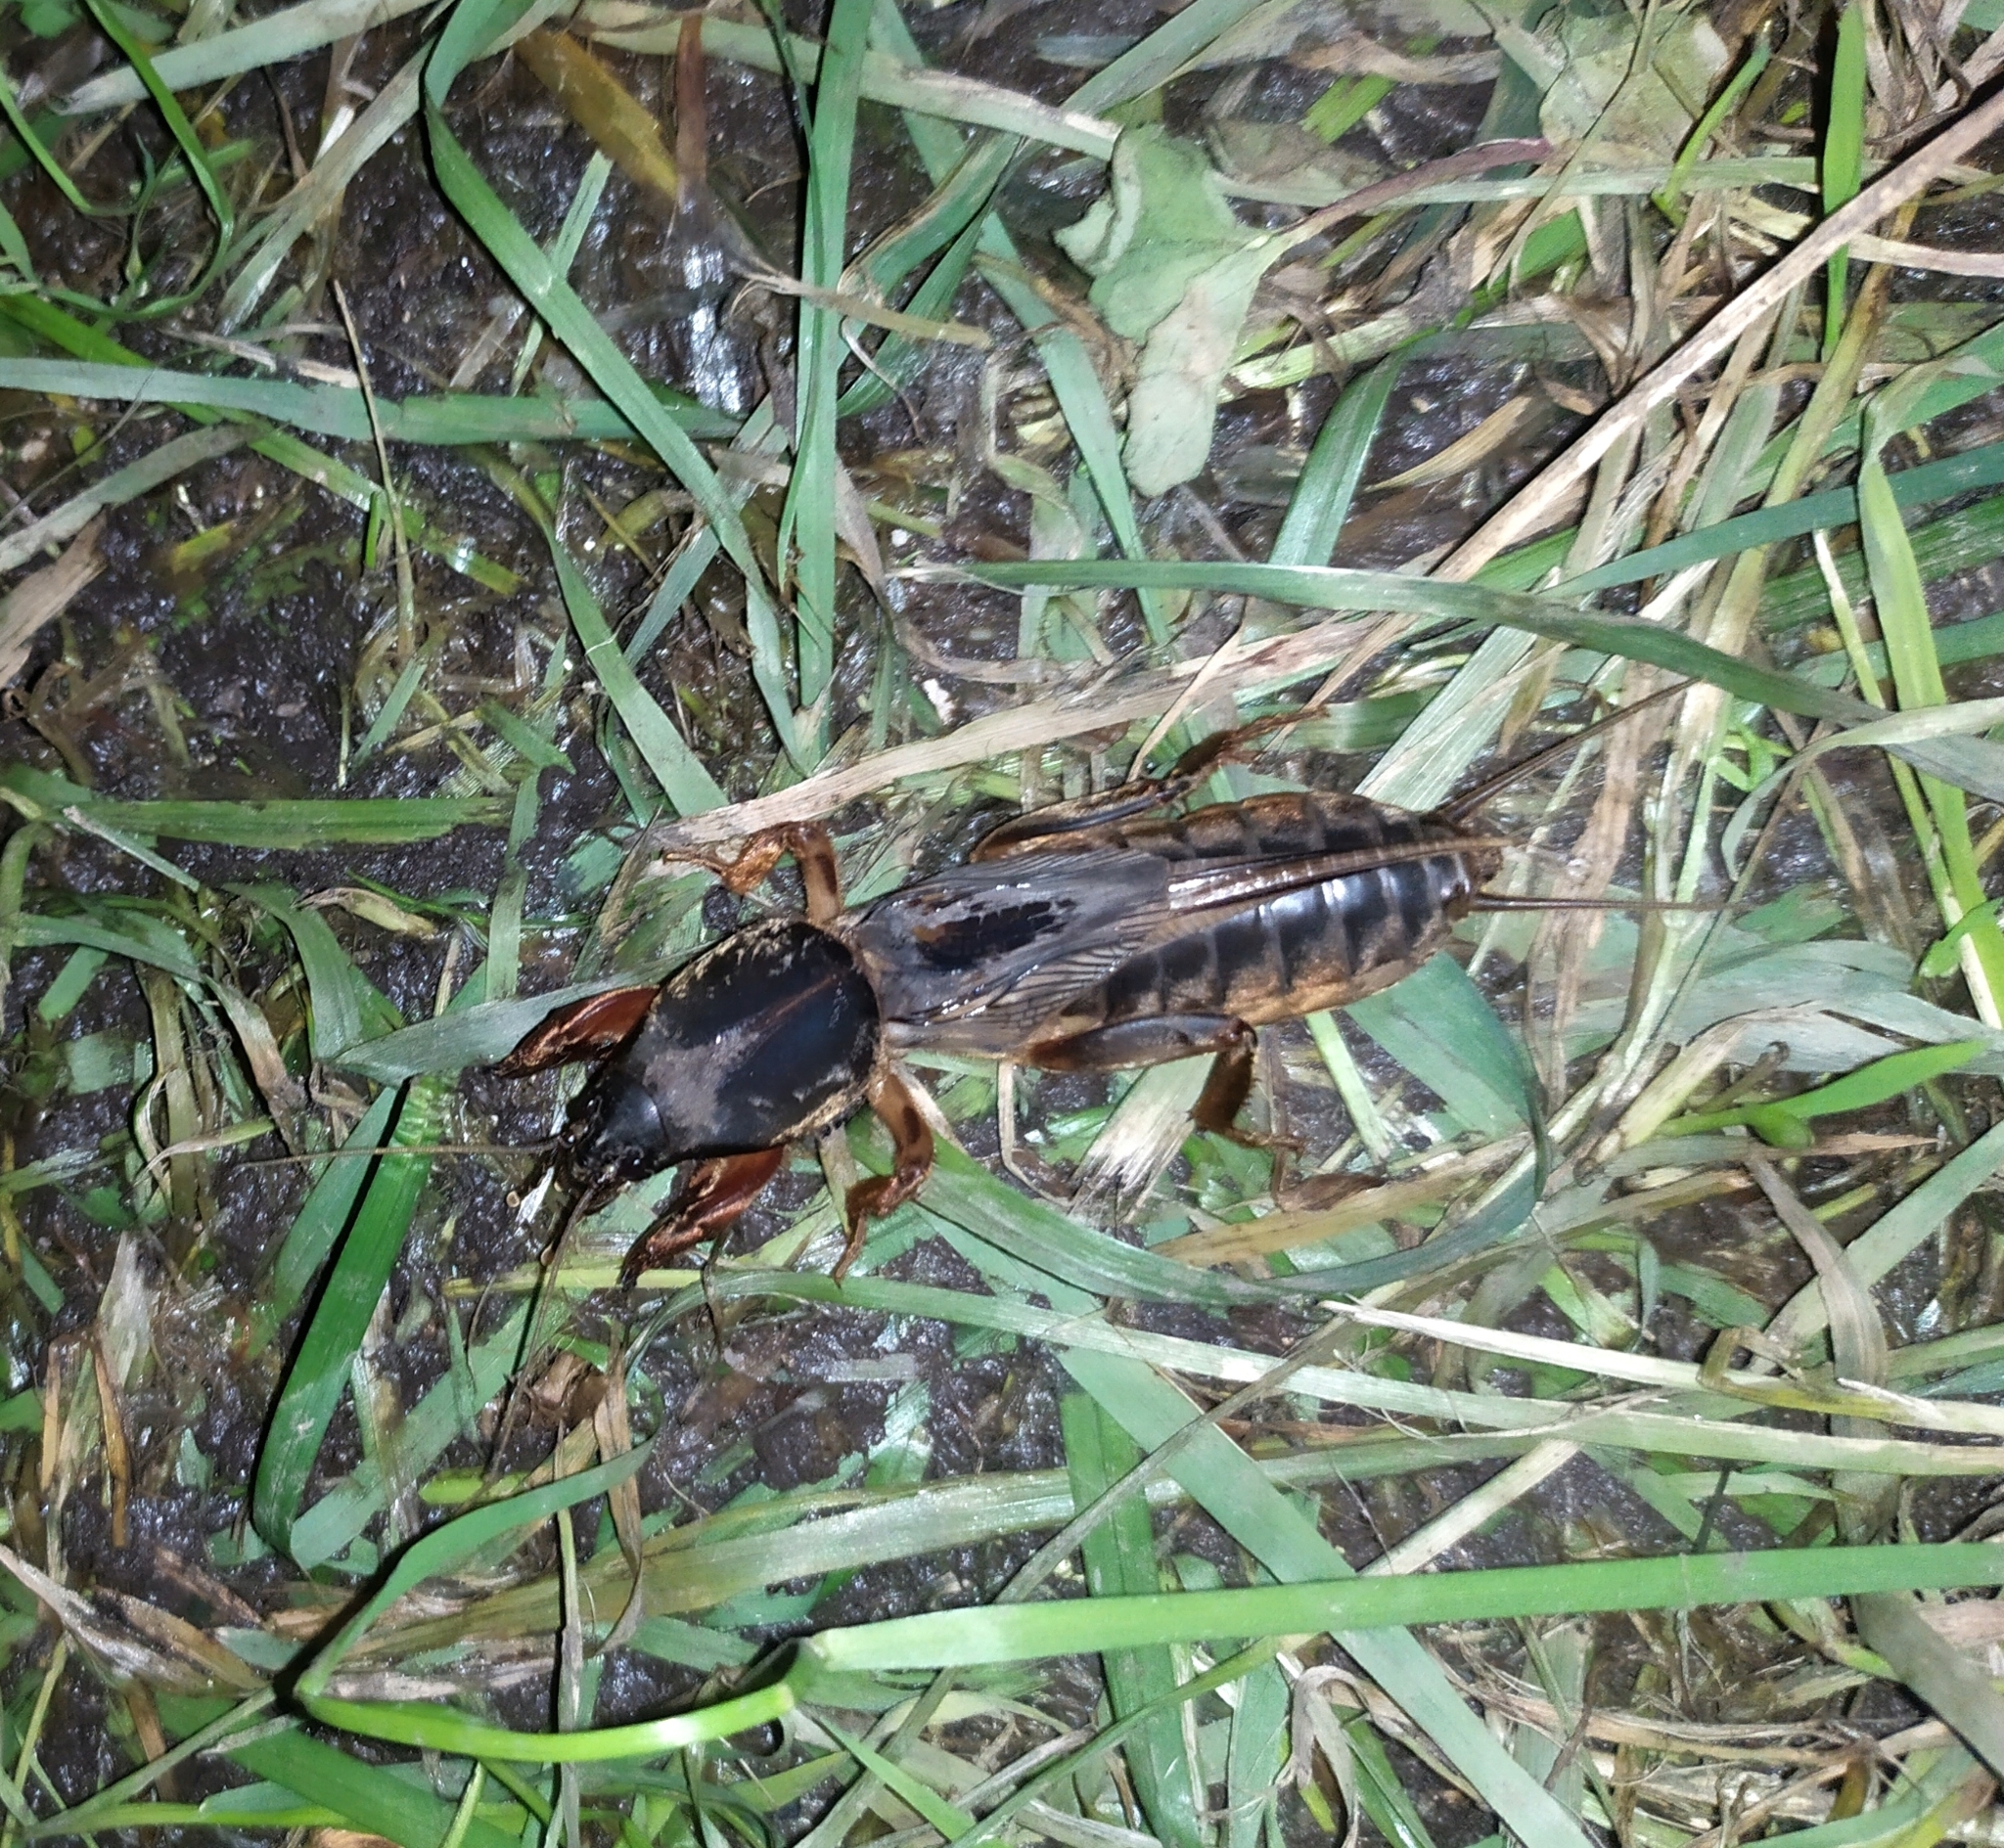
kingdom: Animalia
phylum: Arthropoda
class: Insecta
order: Orthoptera
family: Gryllotalpidae
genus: Gryllotalpa
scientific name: Gryllotalpa gryllotalpa
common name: European mole cricket
